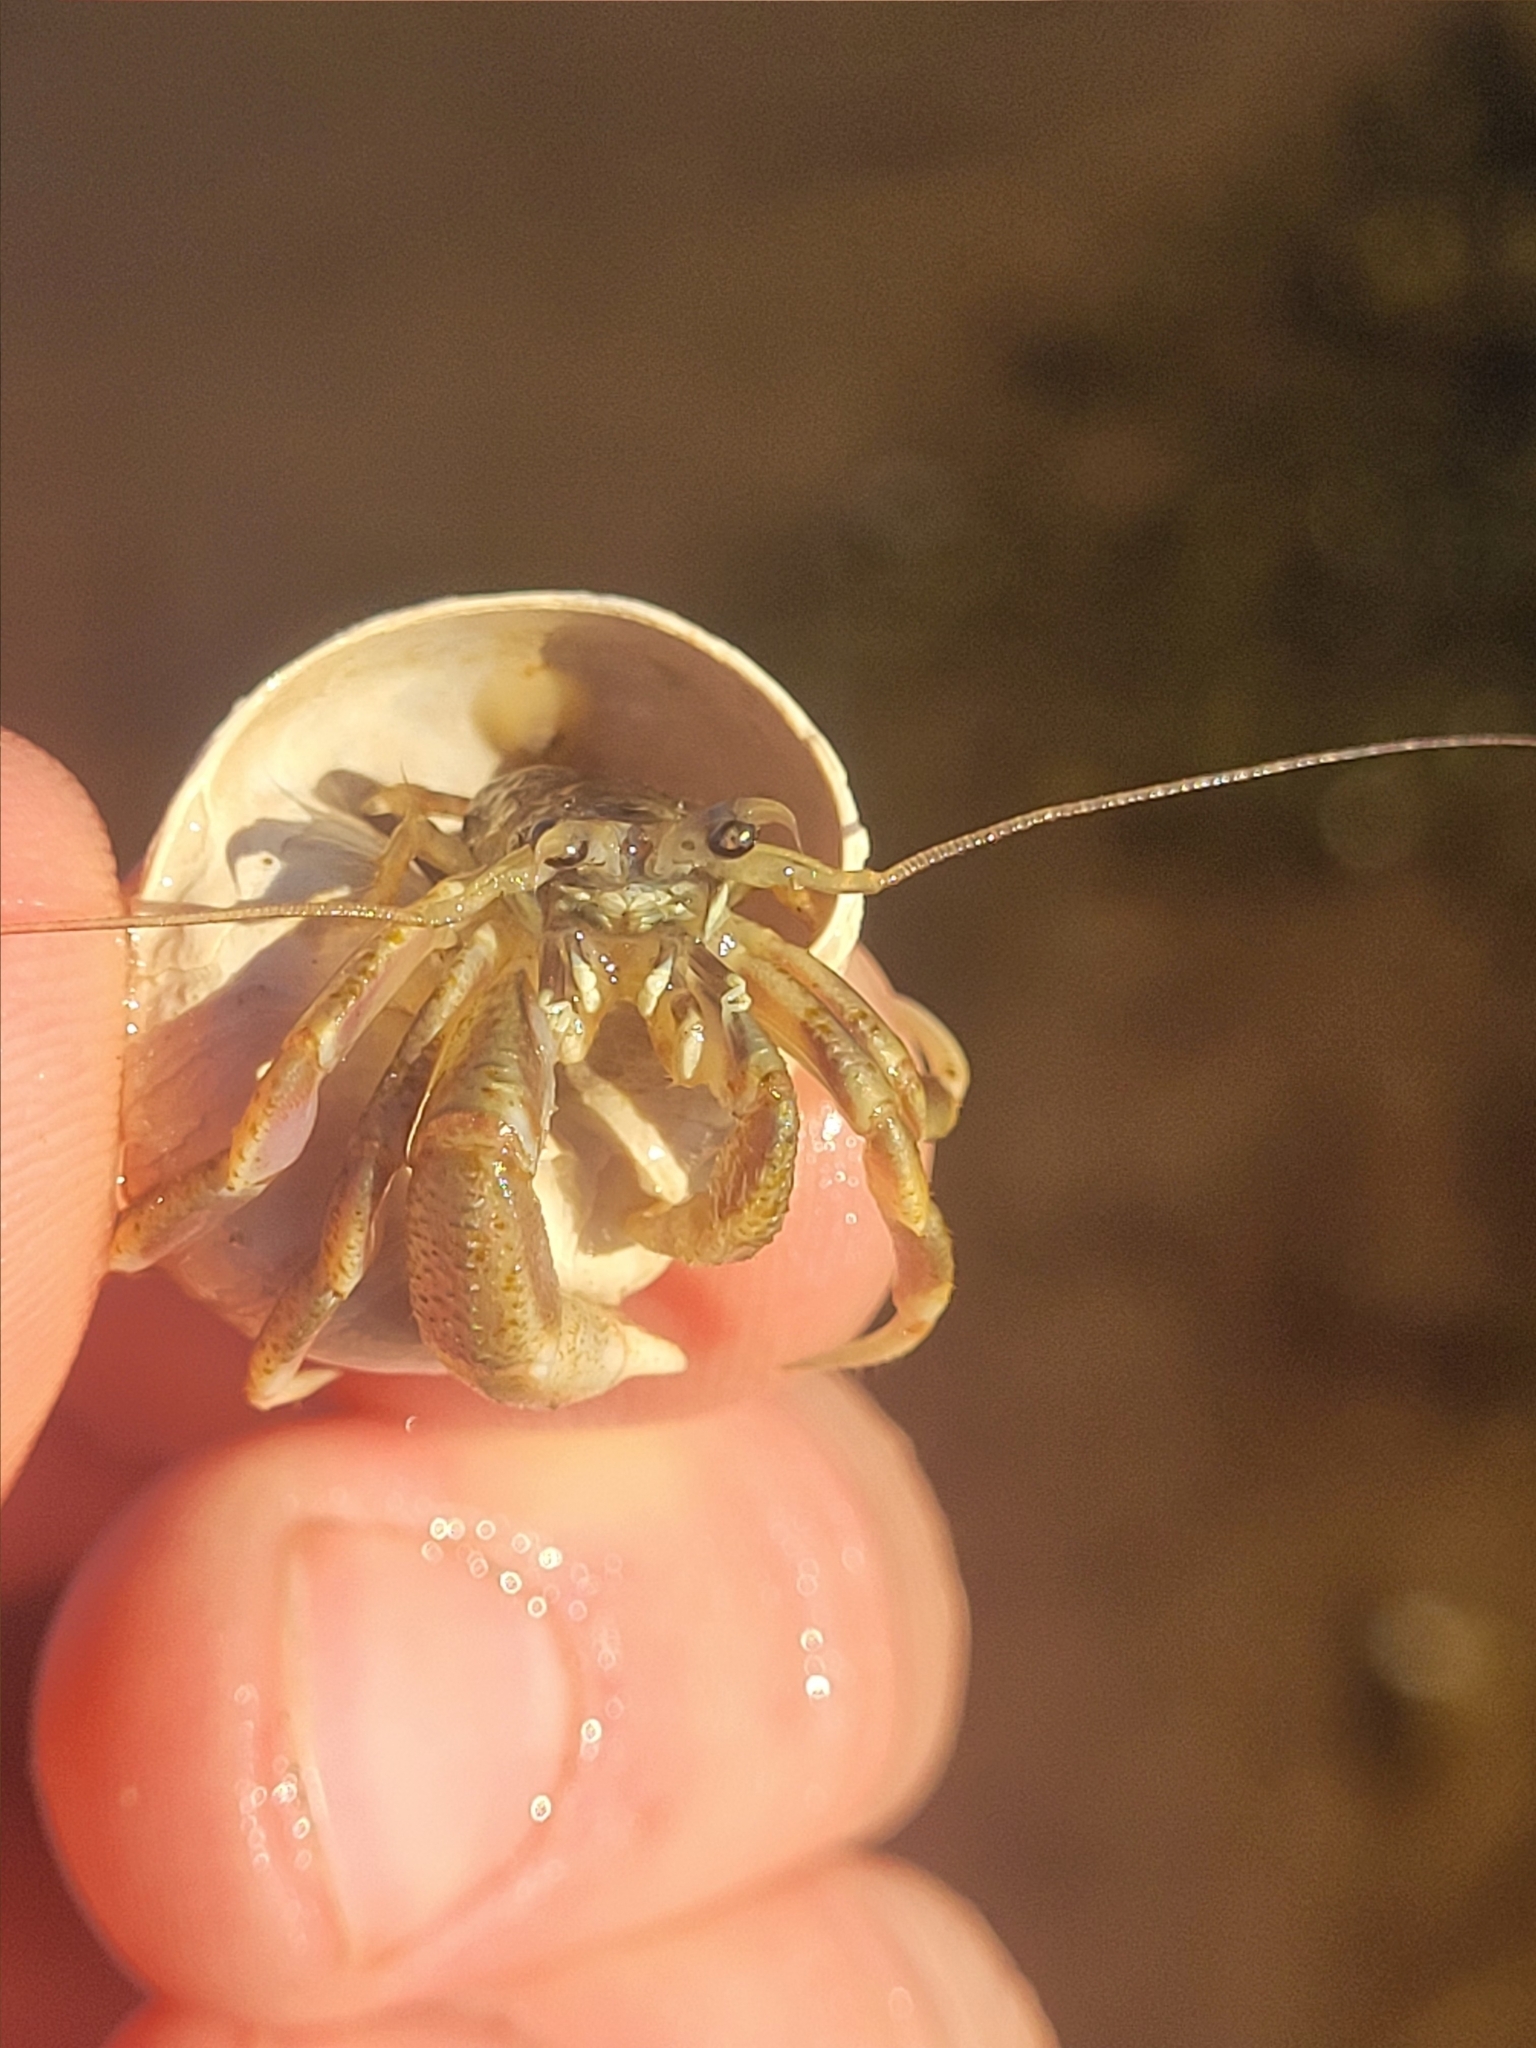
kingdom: Animalia
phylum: Arthropoda
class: Malacostraca
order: Decapoda
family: Paguridae
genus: Pagurus
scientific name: Pagurus longicarpus
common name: Long-armed hermit crab
